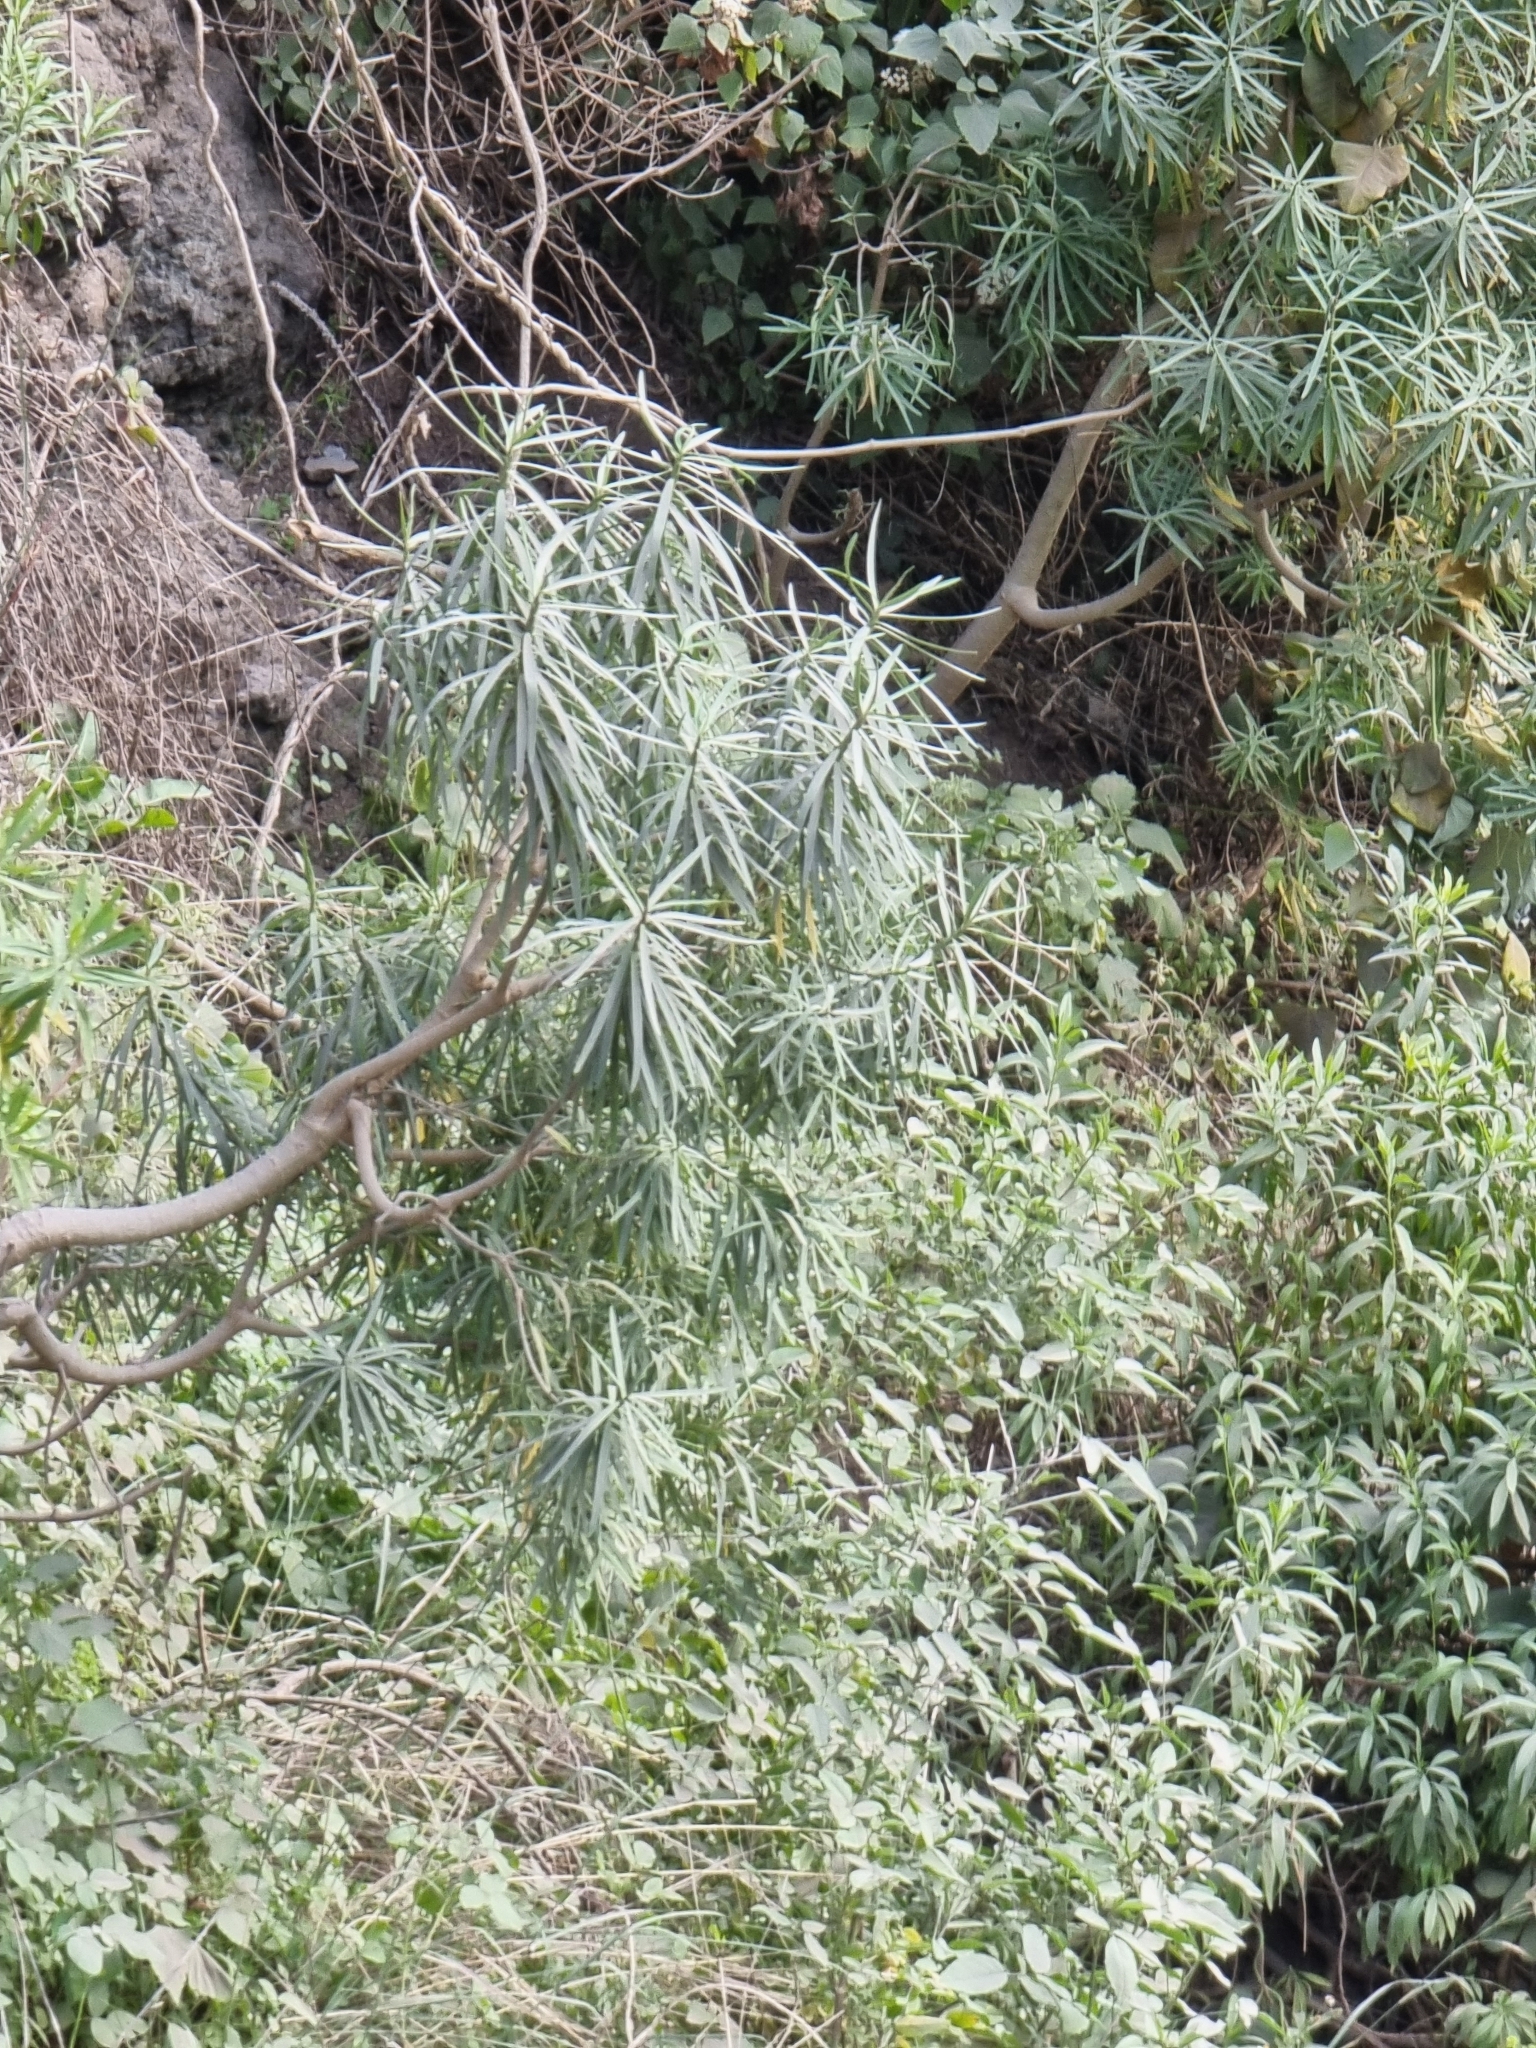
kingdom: Plantae
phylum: Tracheophyta
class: Magnoliopsida
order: Malpighiales
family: Euphorbiaceae
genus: Euphorbia
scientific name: Euphorbia piscatoria
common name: Fish-stunning spurge
